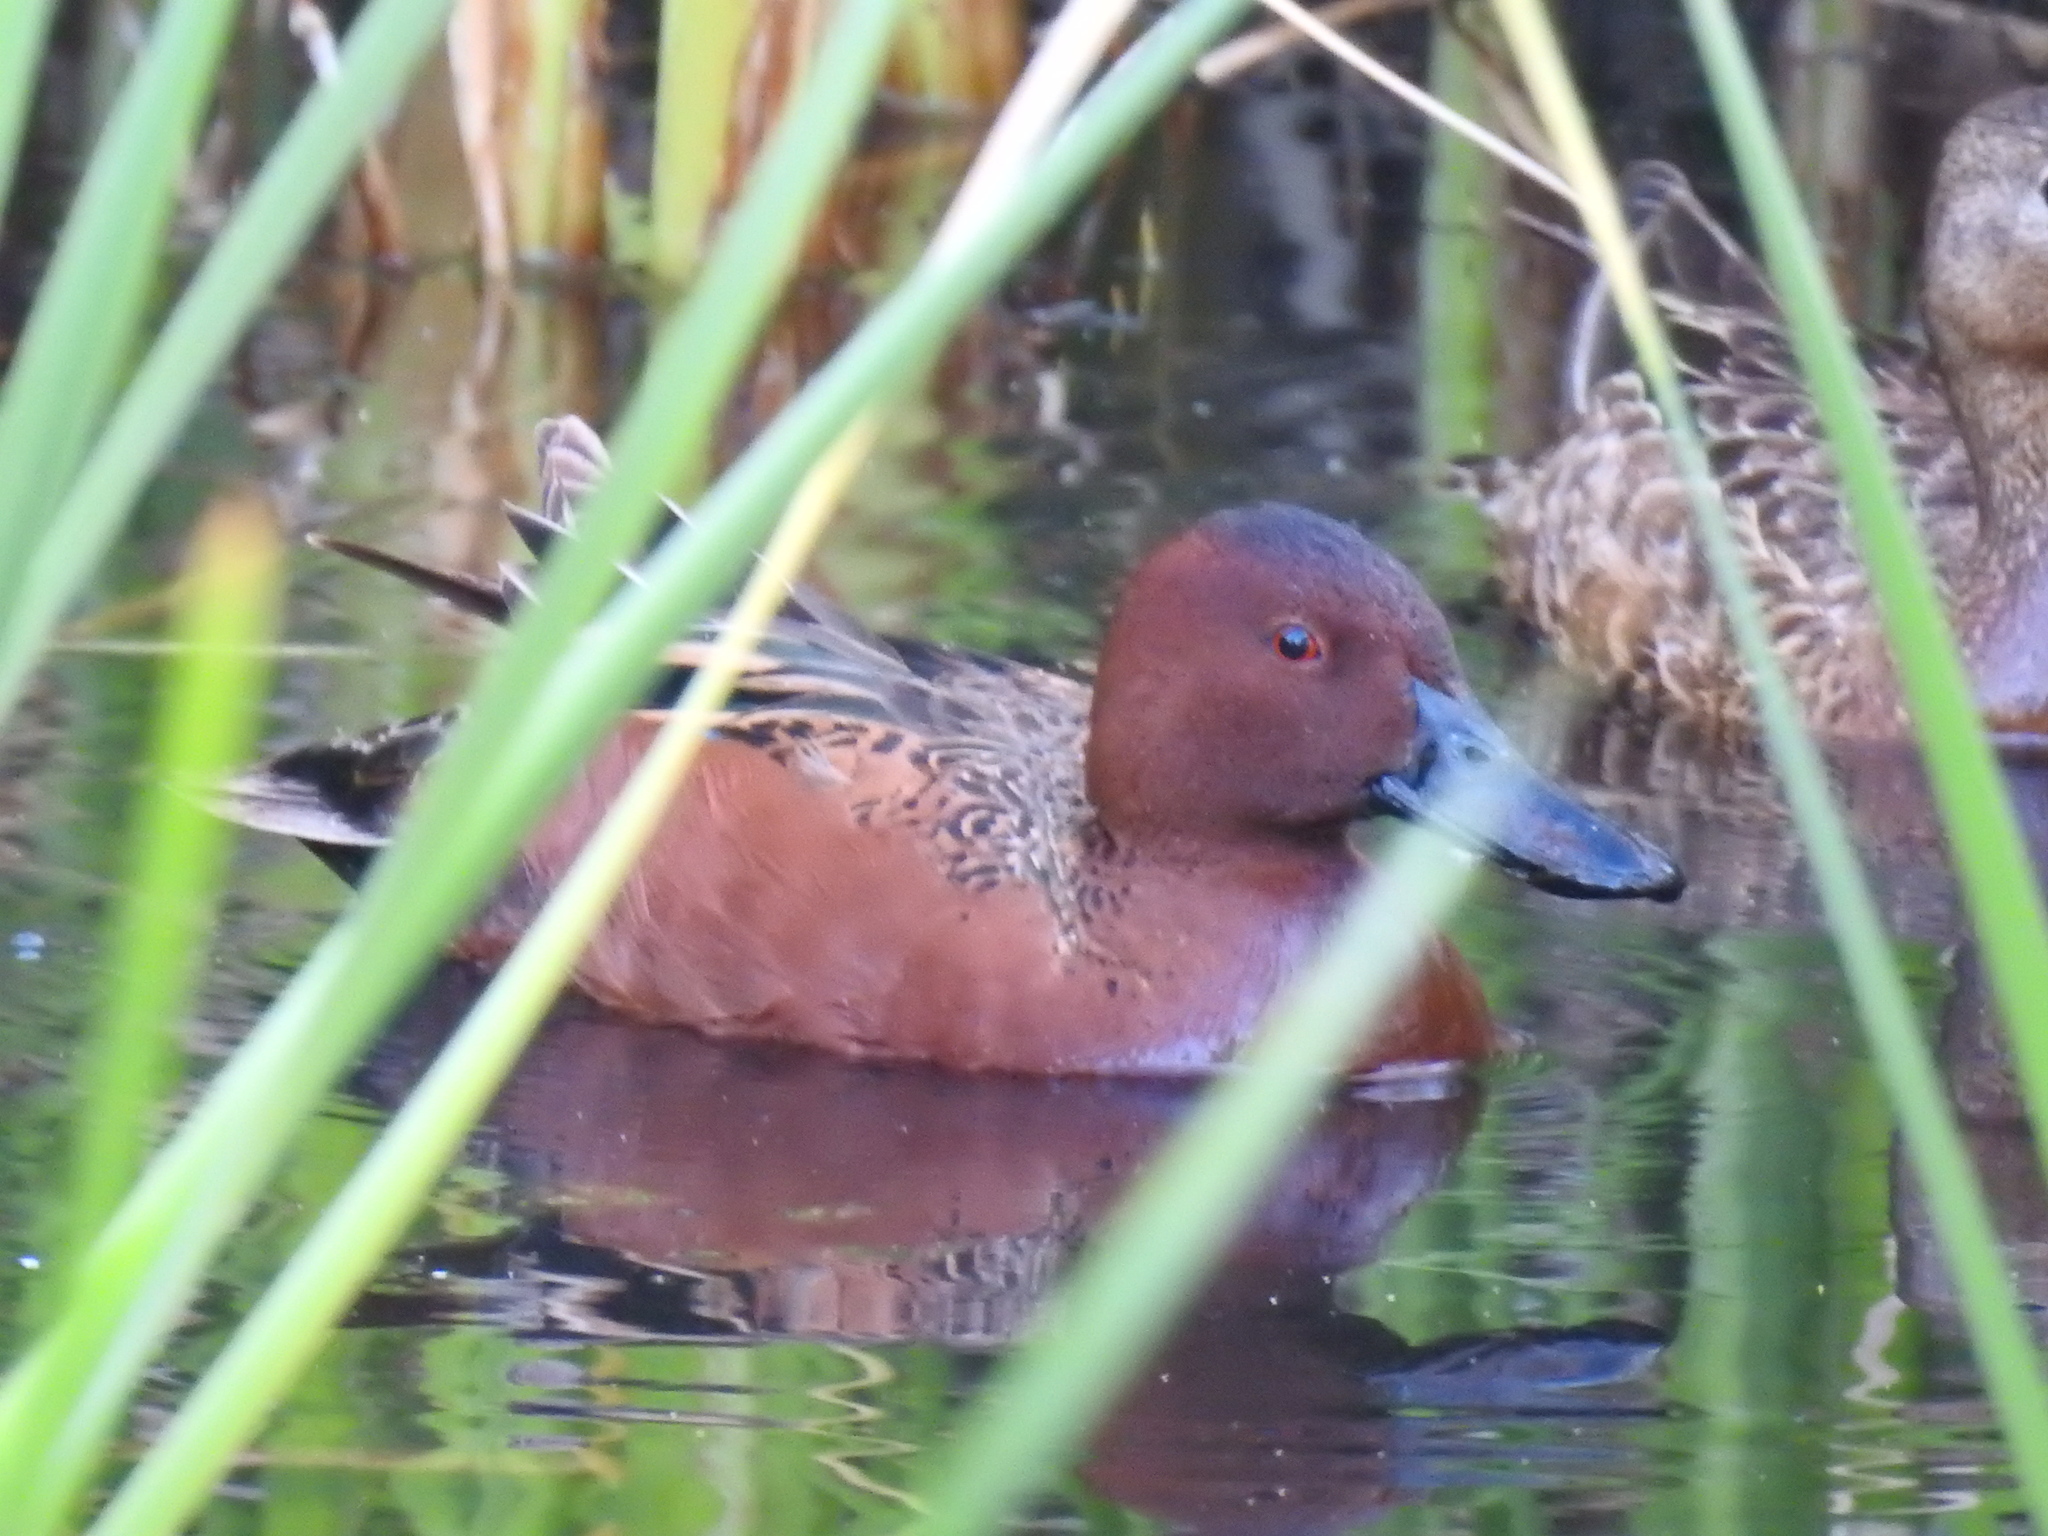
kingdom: Animalia
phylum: Chordata
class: Aves
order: Anseriformes
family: Anatidae
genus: Spatula
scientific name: Spatula cyanoptera
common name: Cinnamon teal
